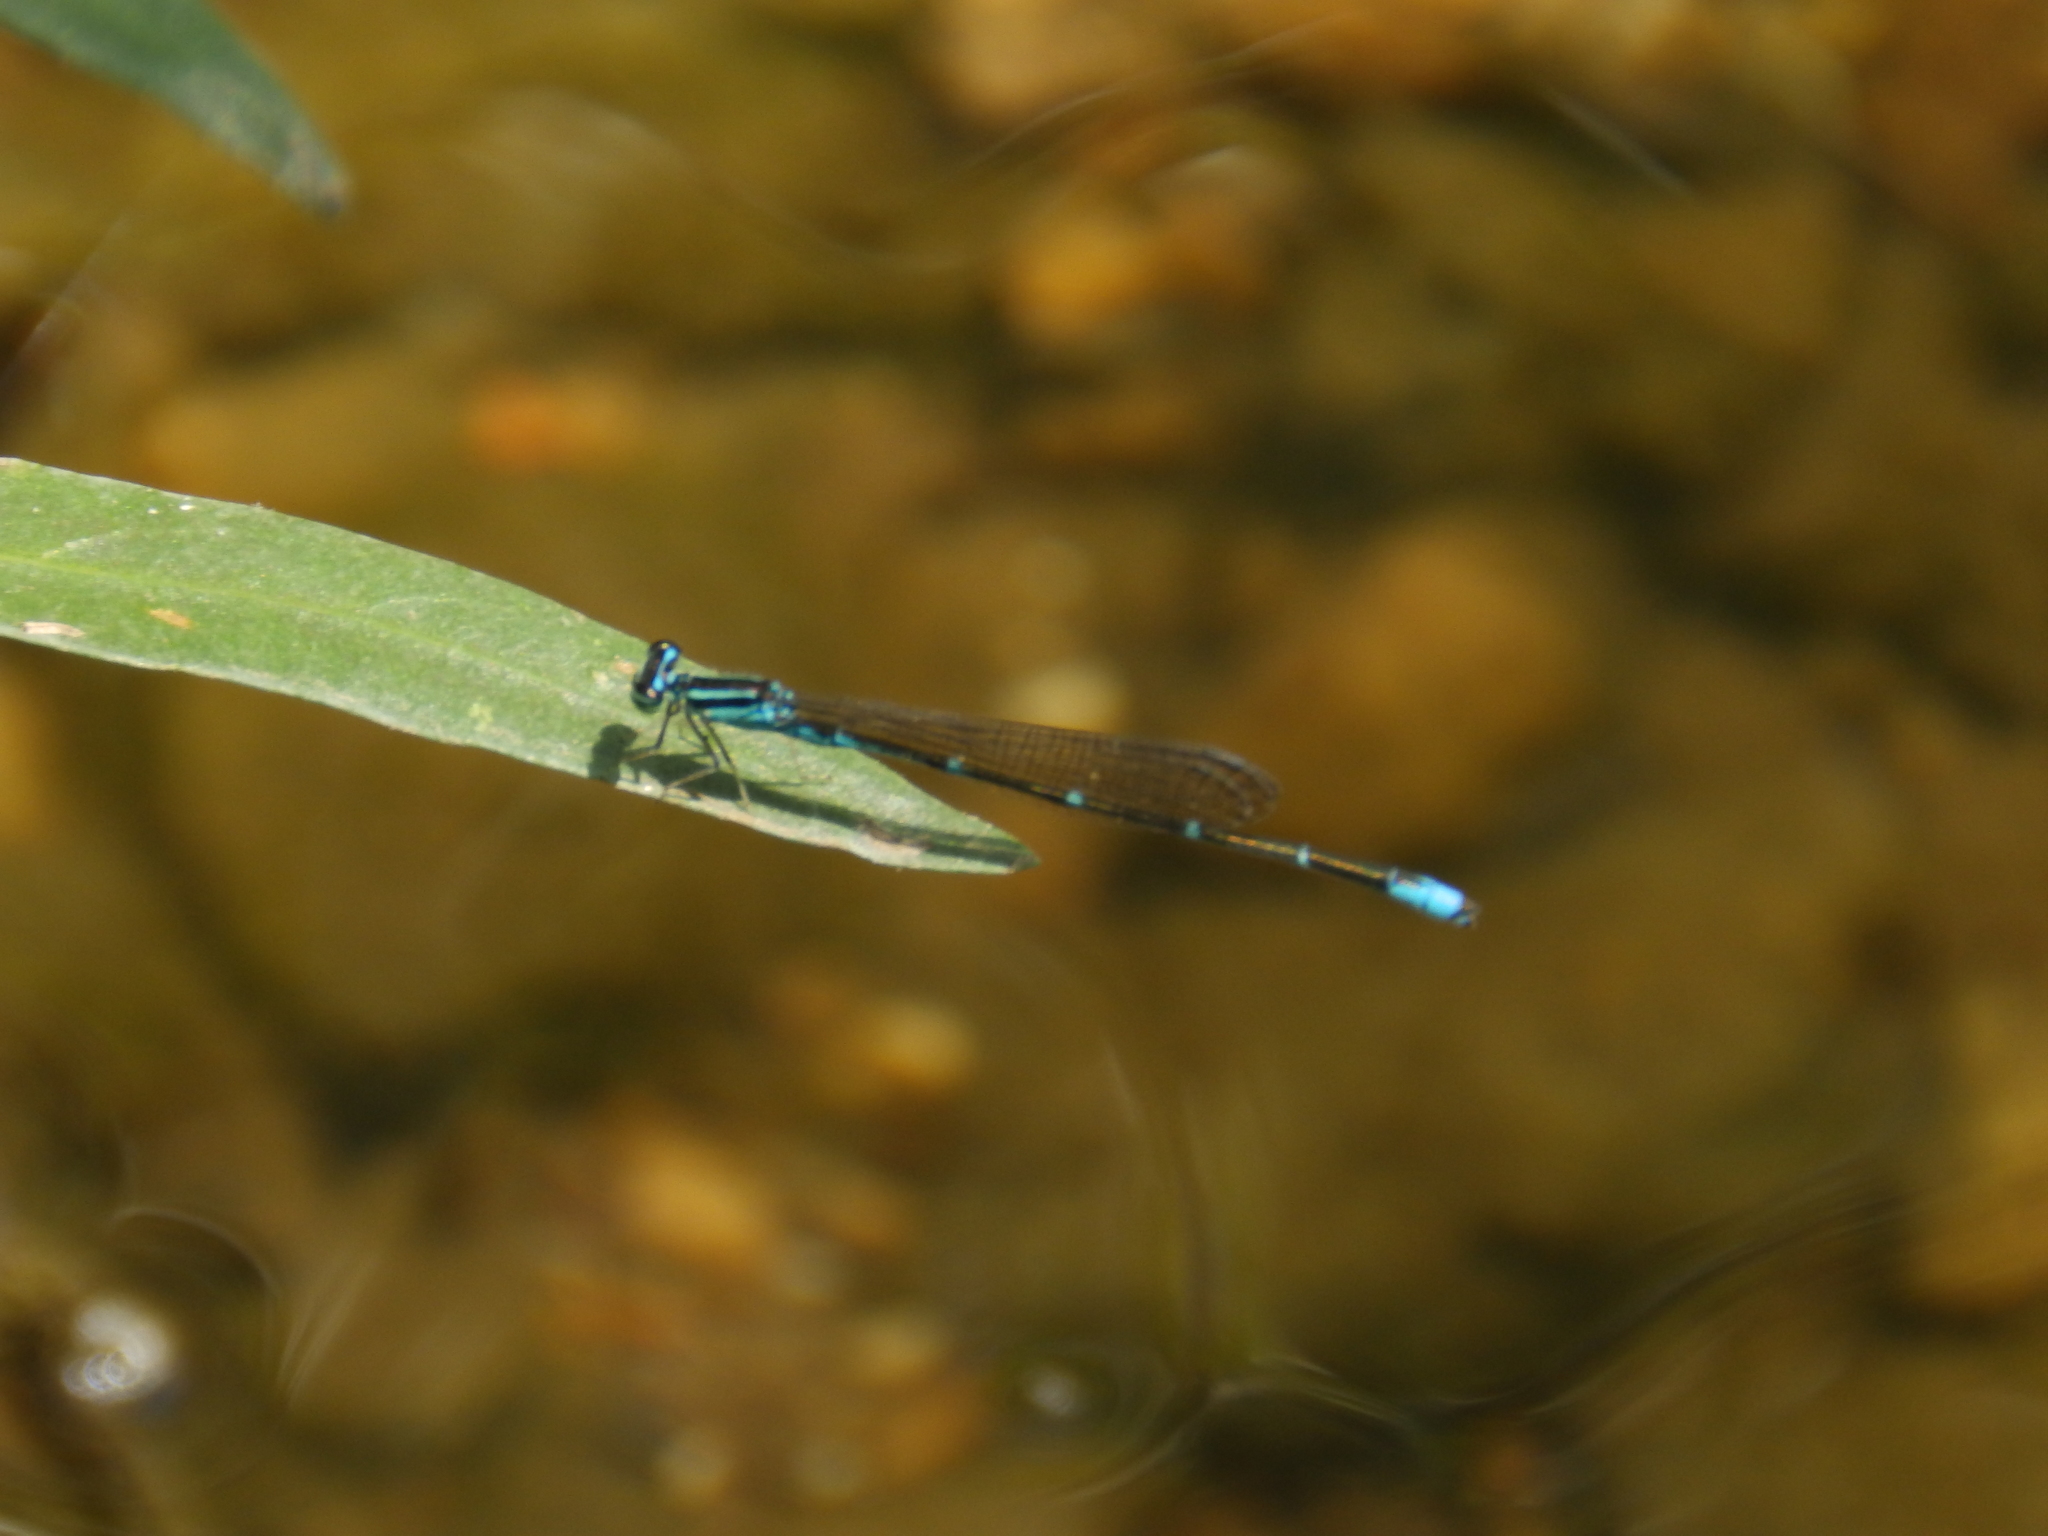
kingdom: Animalia
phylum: Arthropoda
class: Insecta
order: Odonata
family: Coenagrionidae
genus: Enallagma
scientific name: Enallagma exsulans
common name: Stream bluet
